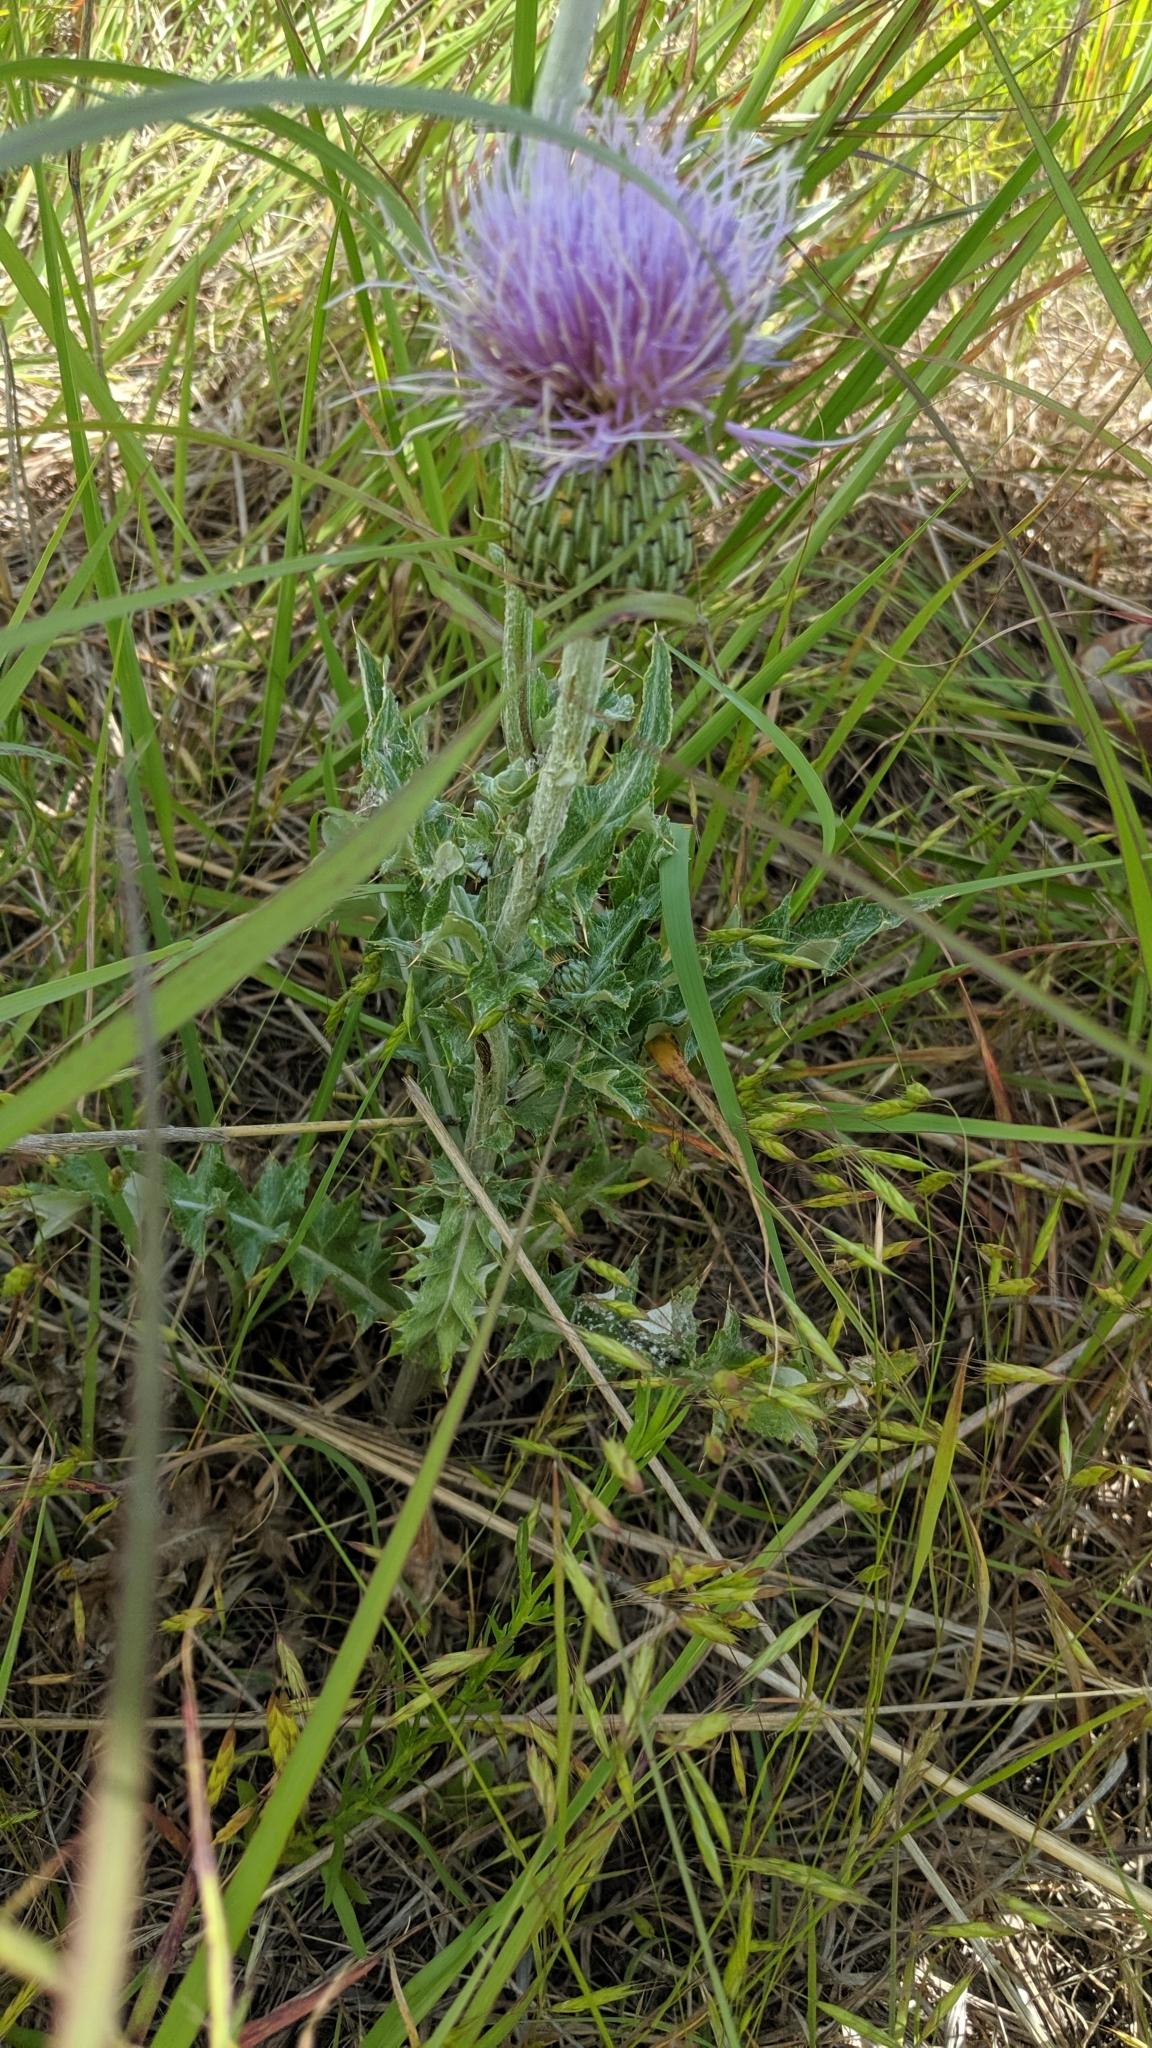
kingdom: Plantae
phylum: Tracheophyta
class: Magnoliopsida
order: Asterales
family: Asteraceae
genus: Cirsium
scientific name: Cirsium undulatum
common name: Pasture thistle
